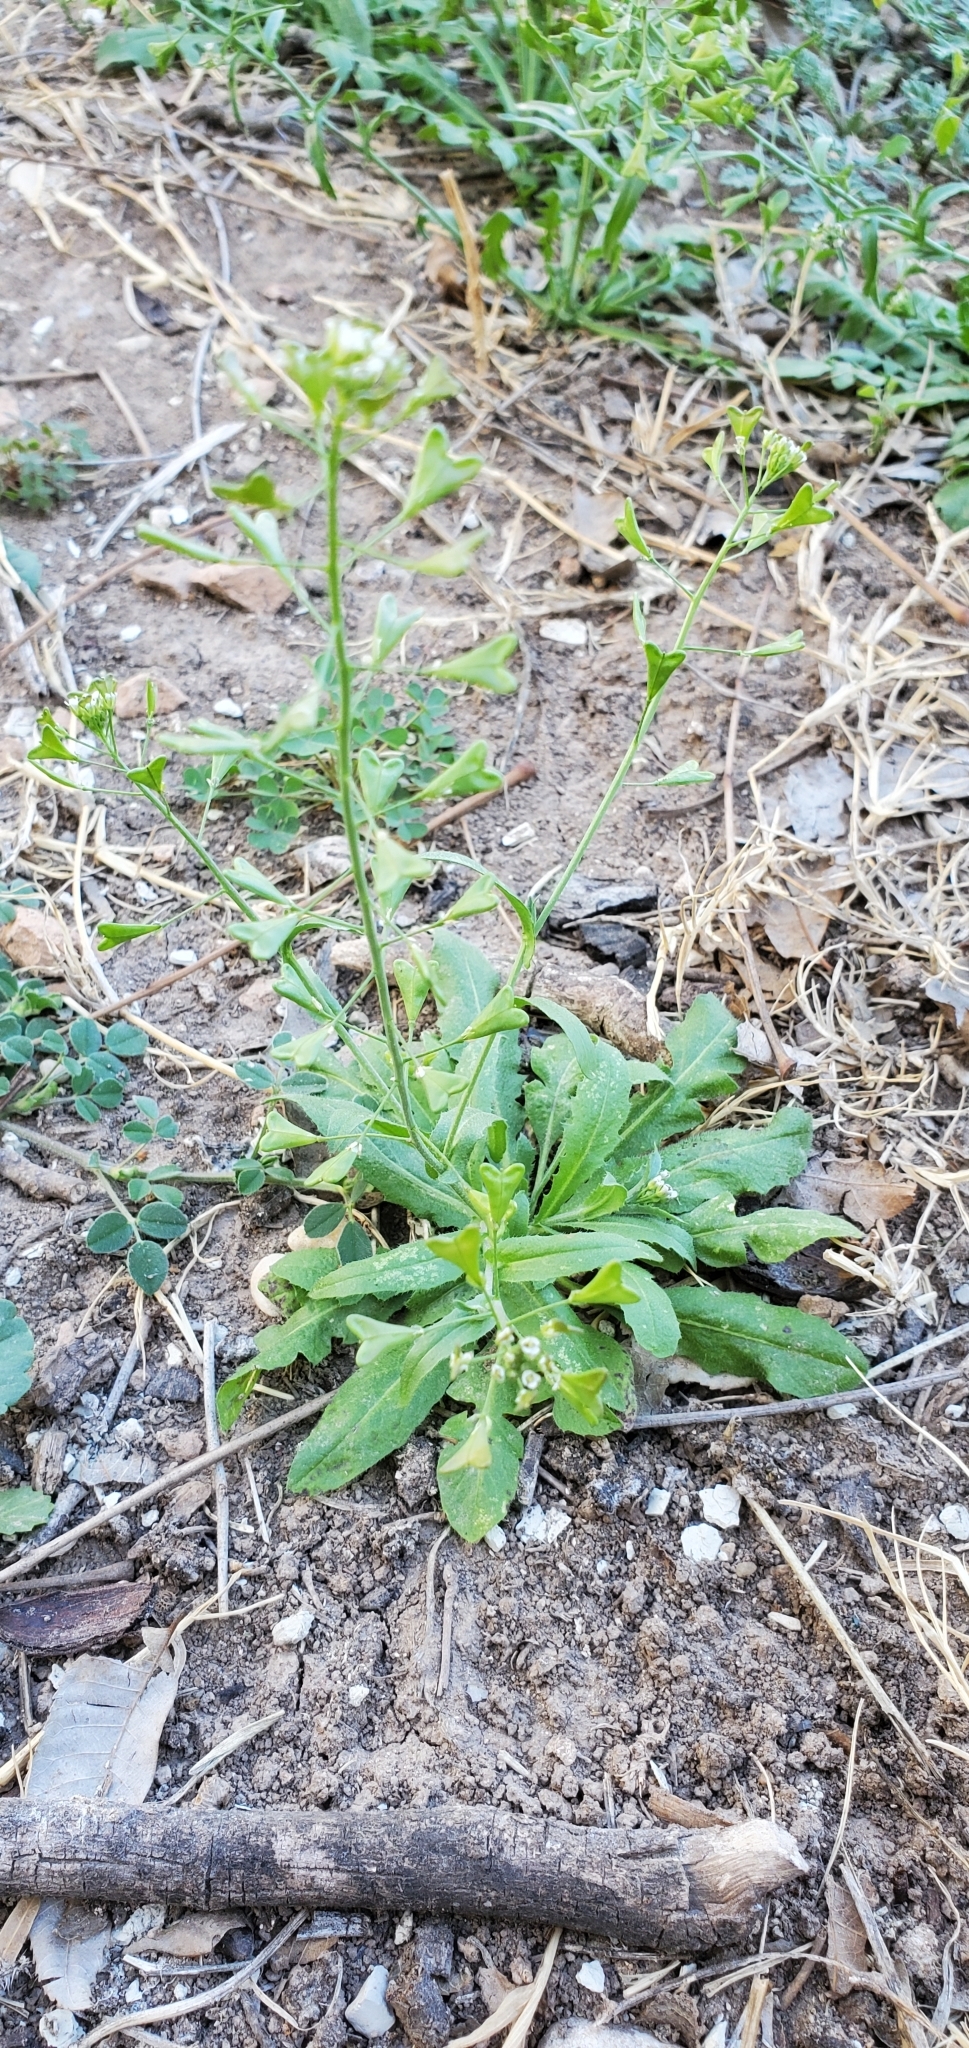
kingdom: Plantae
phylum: Tracheophyta
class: Magnoliopsida
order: Brassicales
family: Brassicaceae
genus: Capsella
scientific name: Capsella bursa-pastoris
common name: Shepherd's purse
